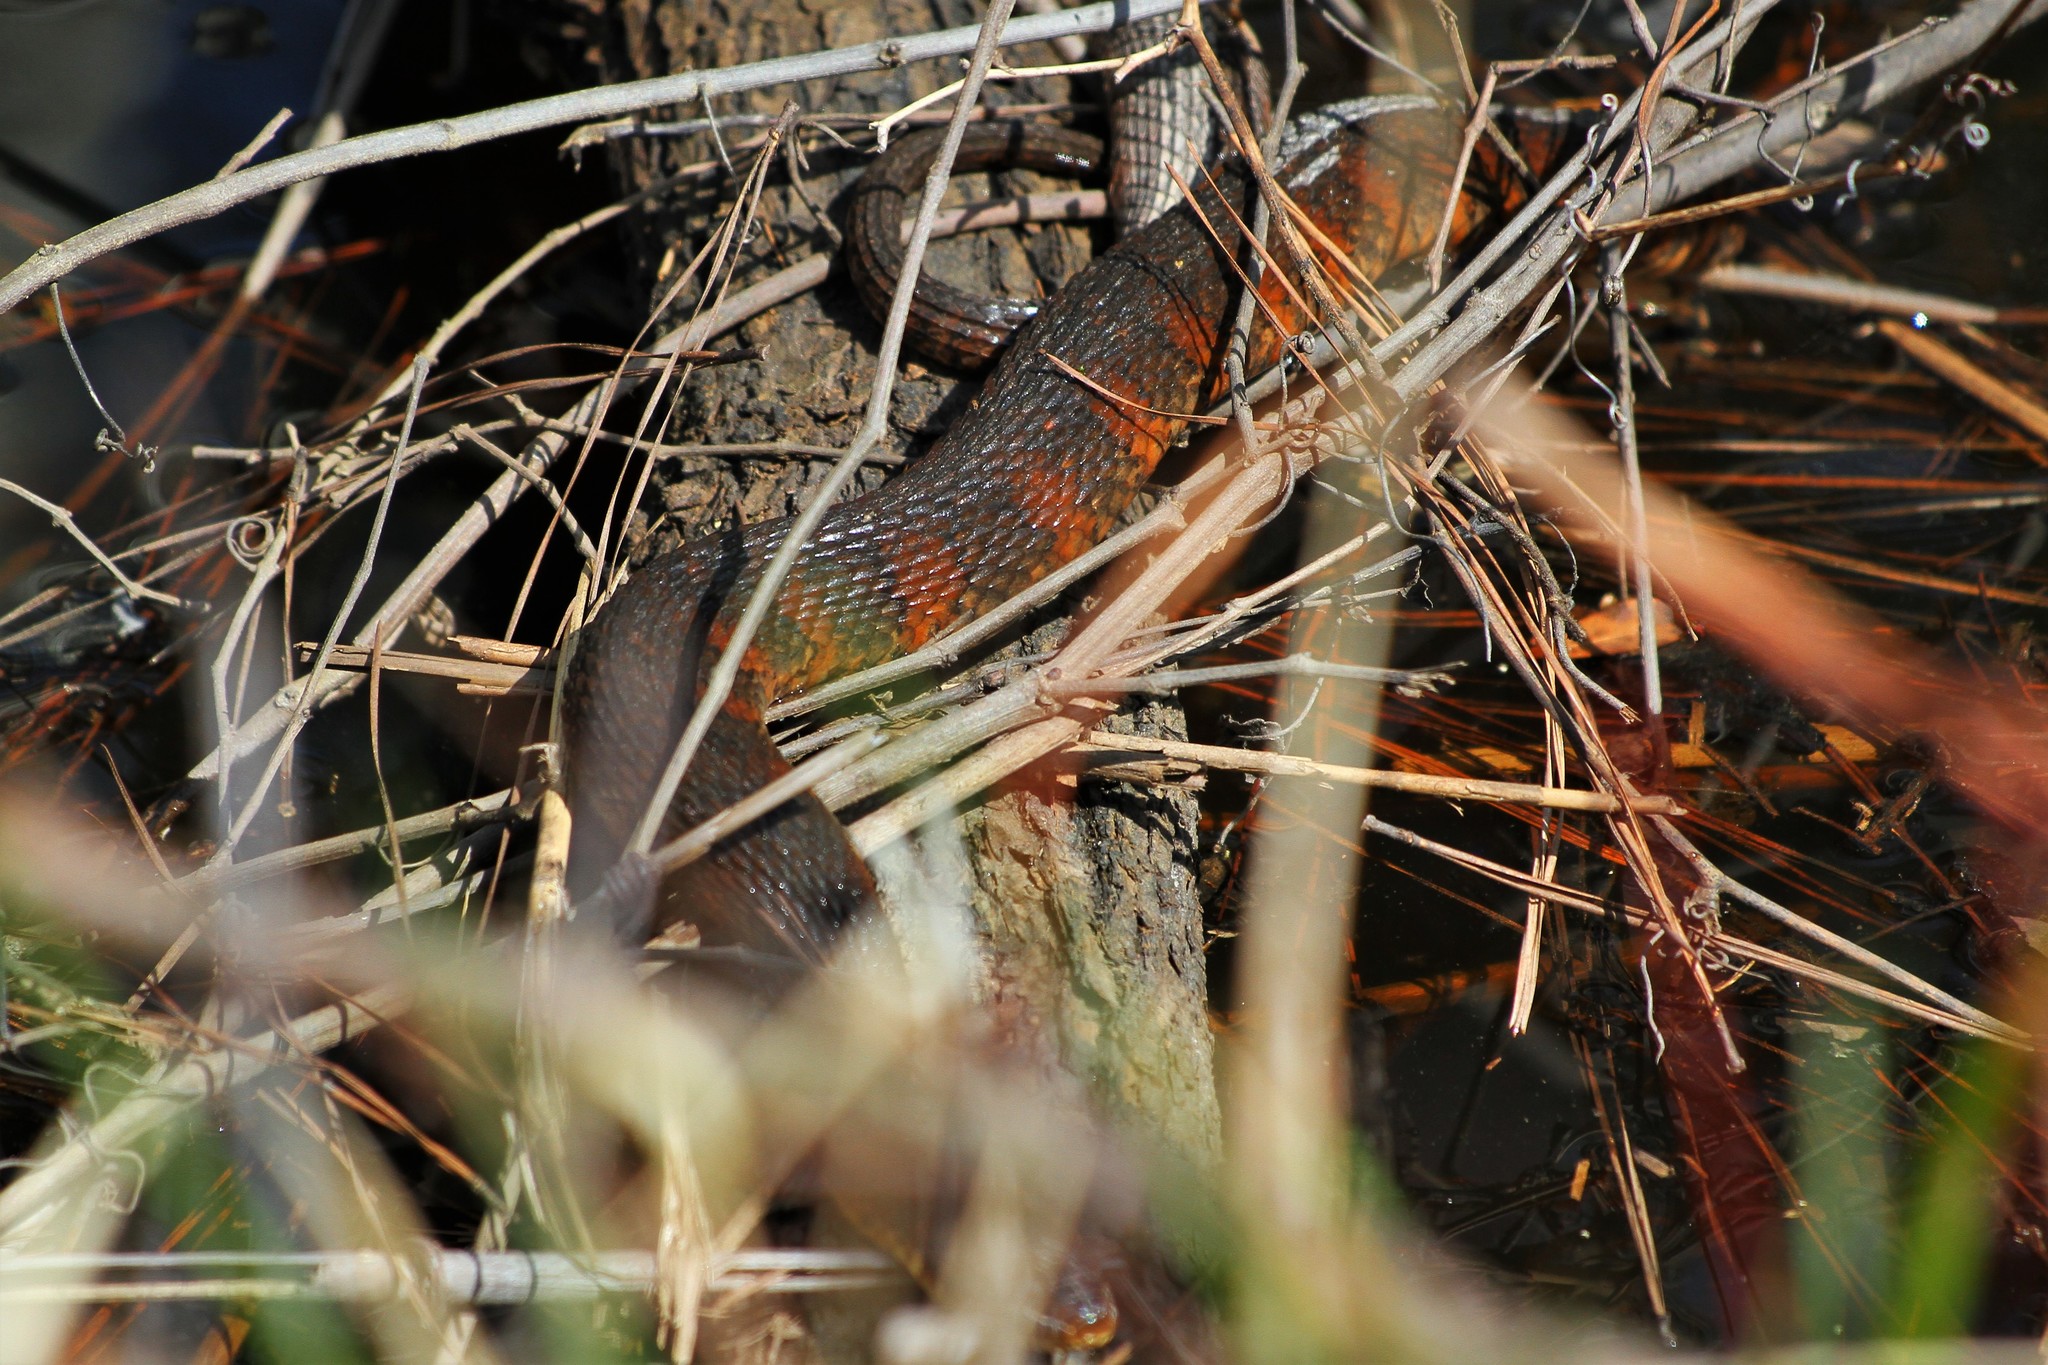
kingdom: Animalia
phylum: Chordata
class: Squamata
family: Colubridae
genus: Nerodia
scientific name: Nerodia
